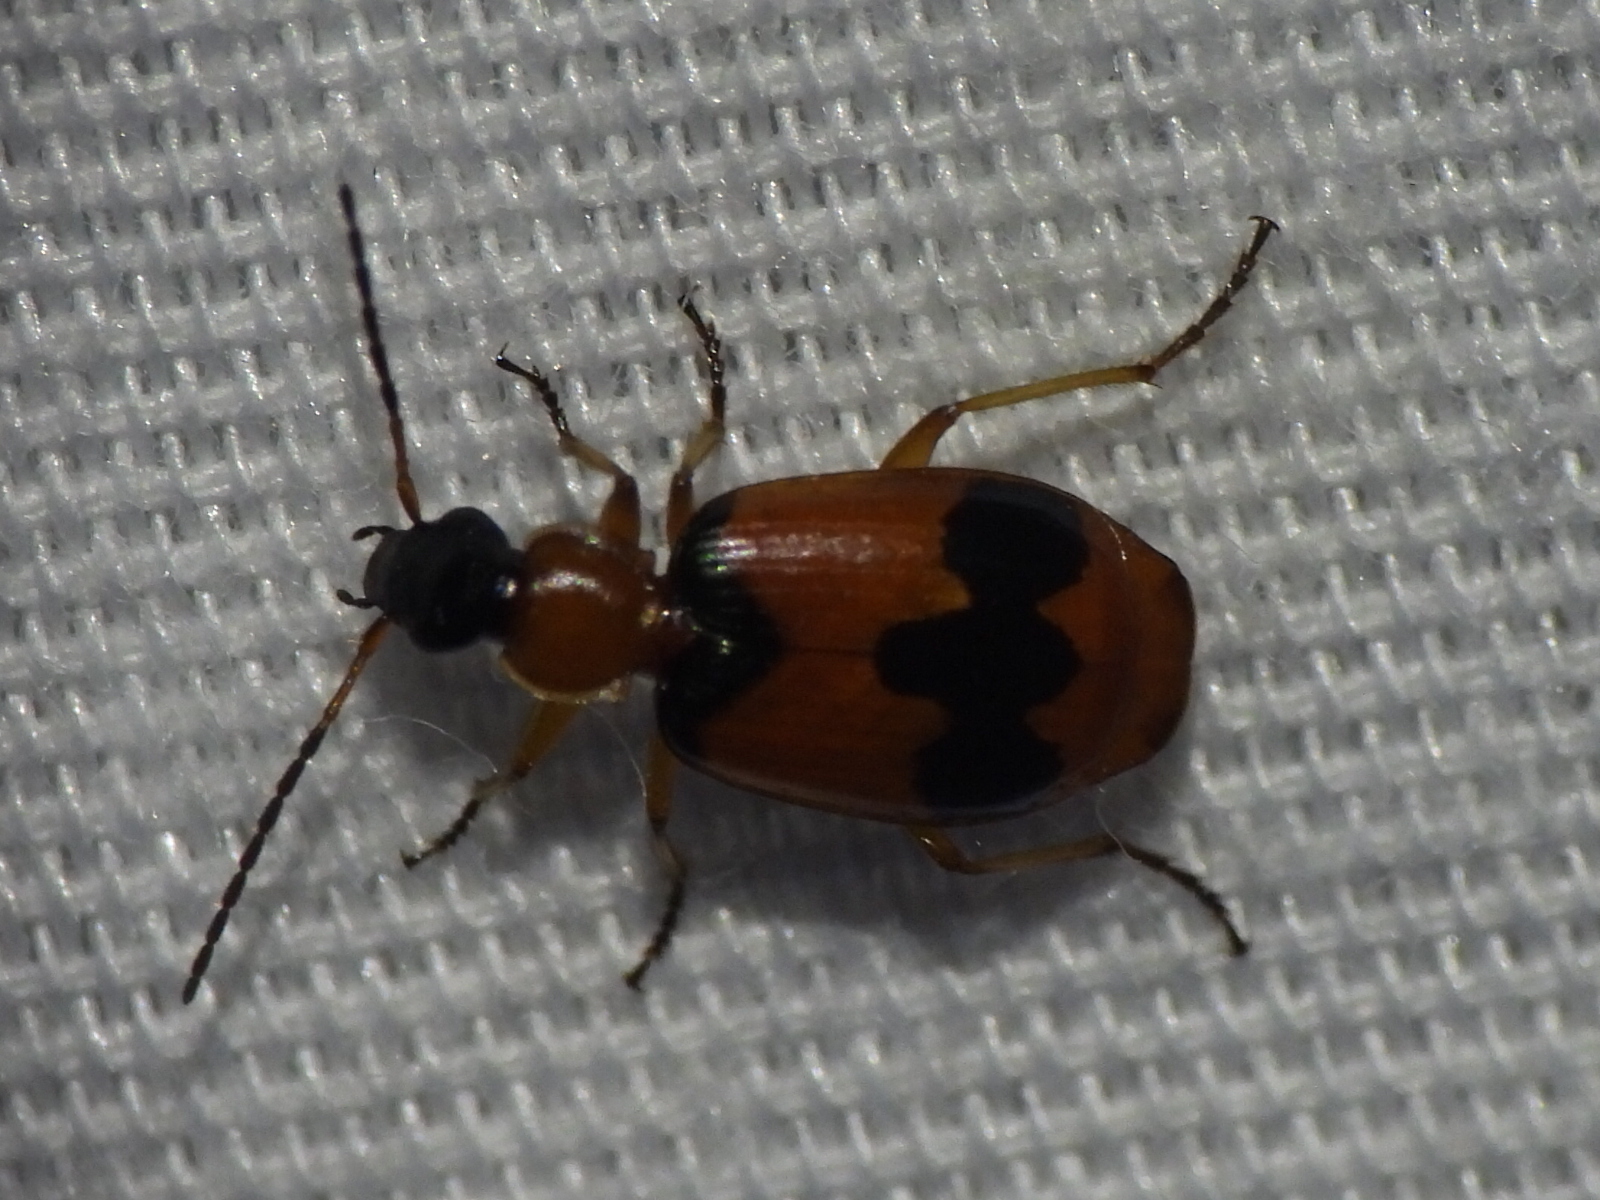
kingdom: Animalia
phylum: Arthropoda
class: Insecta
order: Coleoptera
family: Carabidae
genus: Lebia
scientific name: Lebia pulchella
